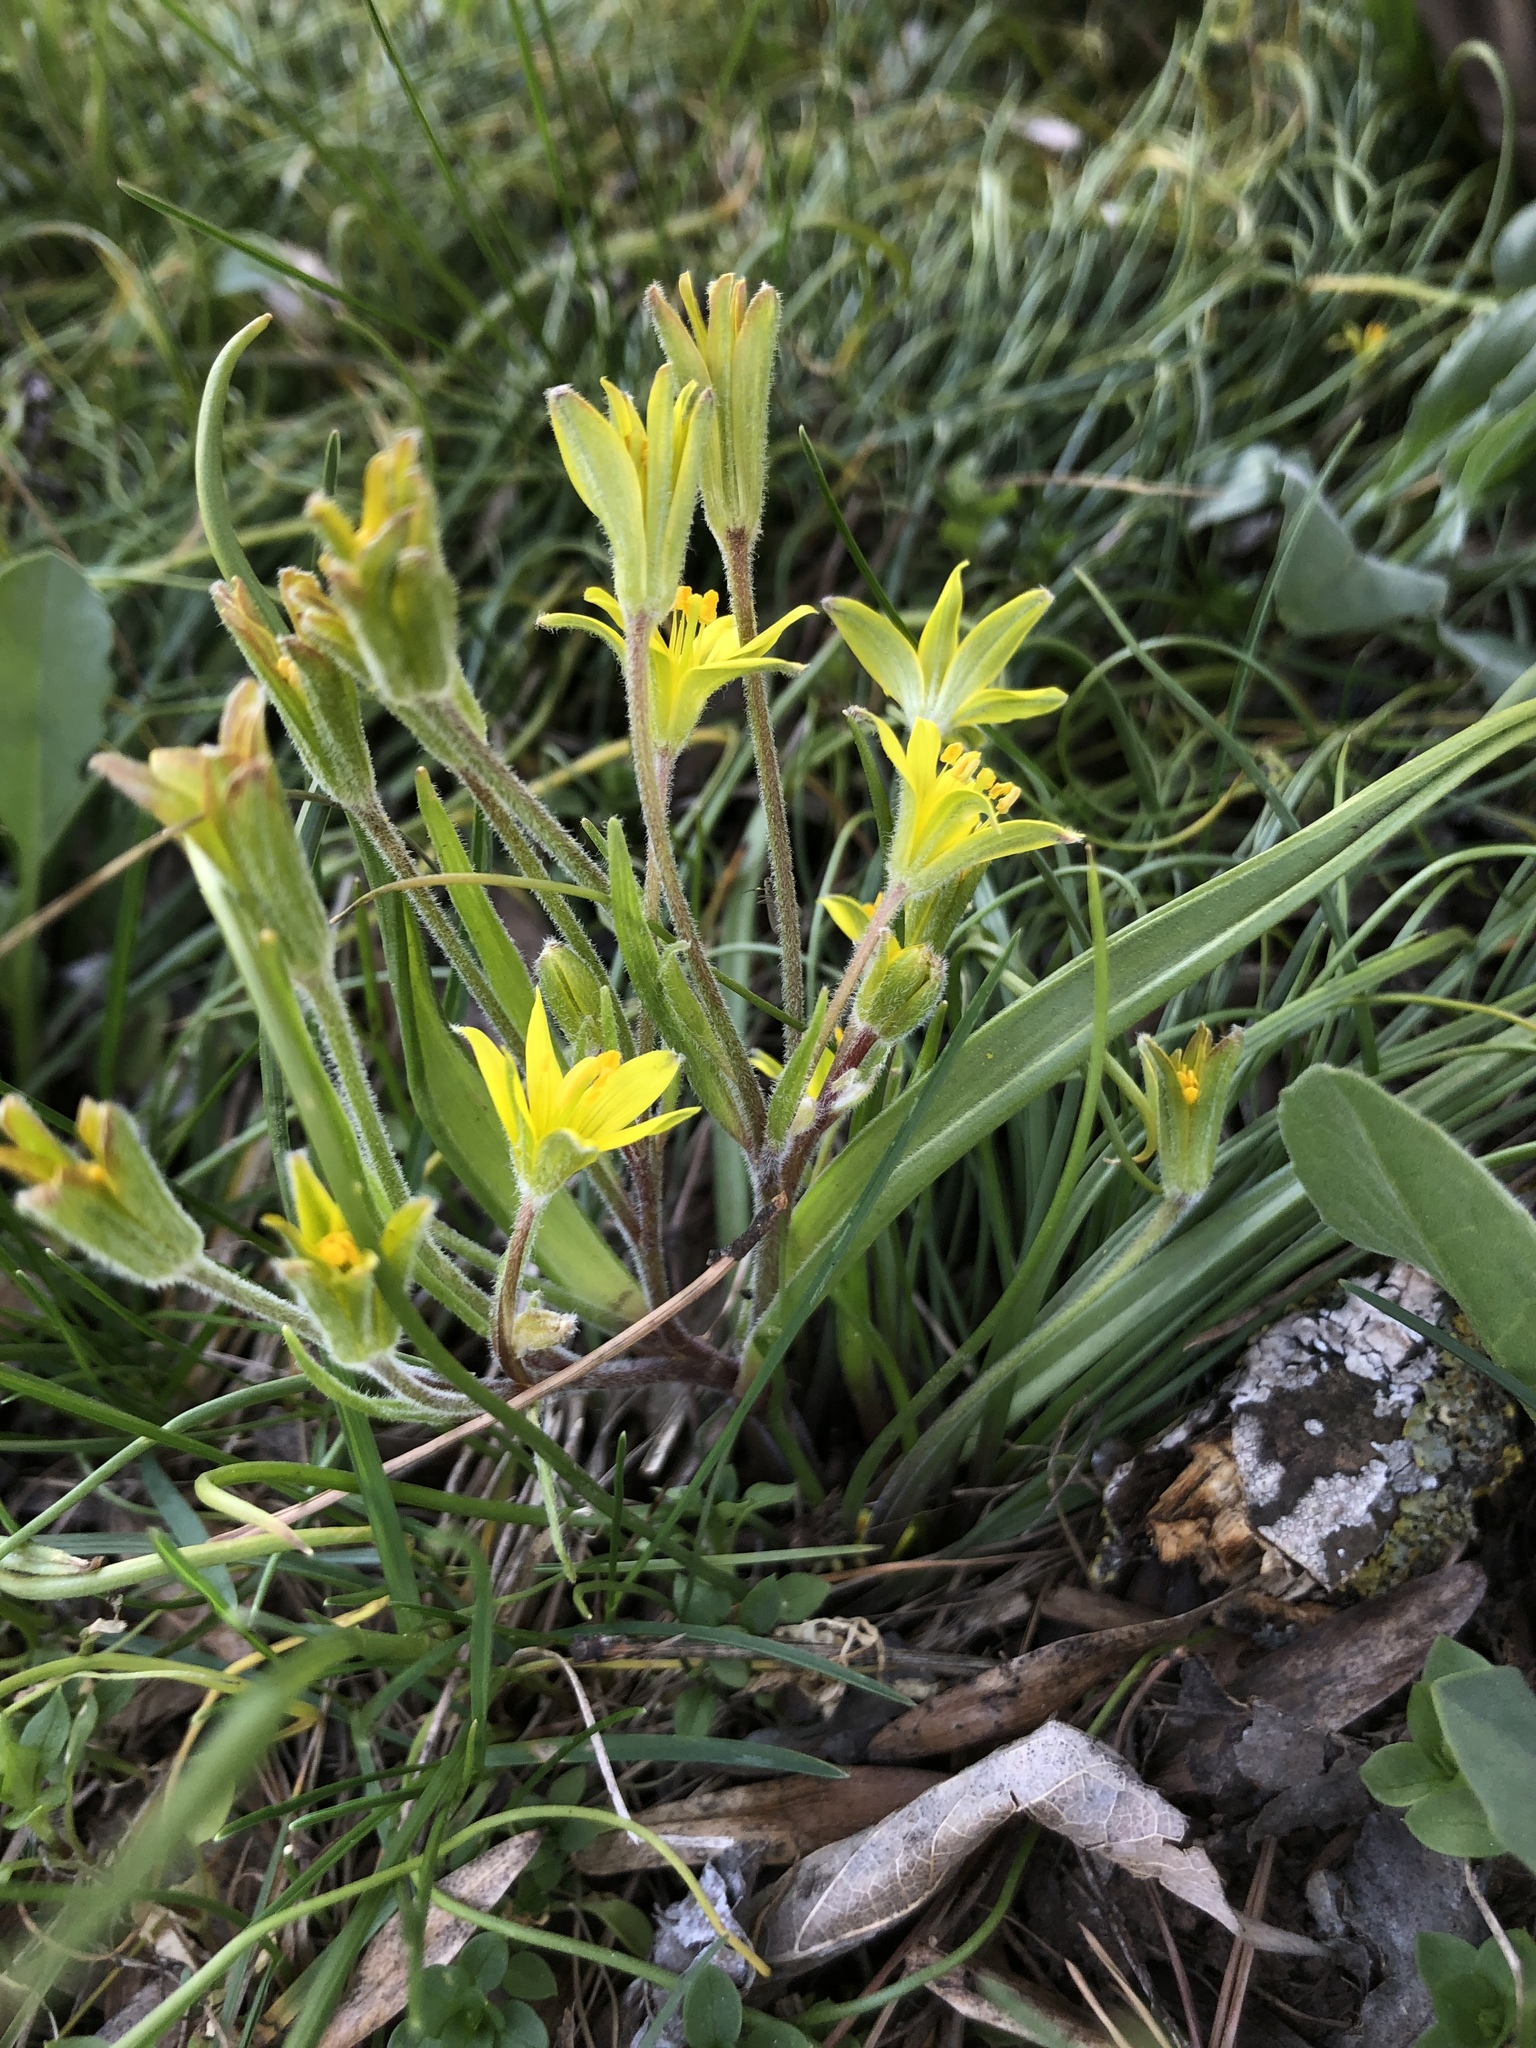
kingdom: Plantae
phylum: Tracheophyta
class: Liliopsida
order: Liliales
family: Liliaceae
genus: Gagea
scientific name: Gagea lutea
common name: Yellow star-of-bethlehem
